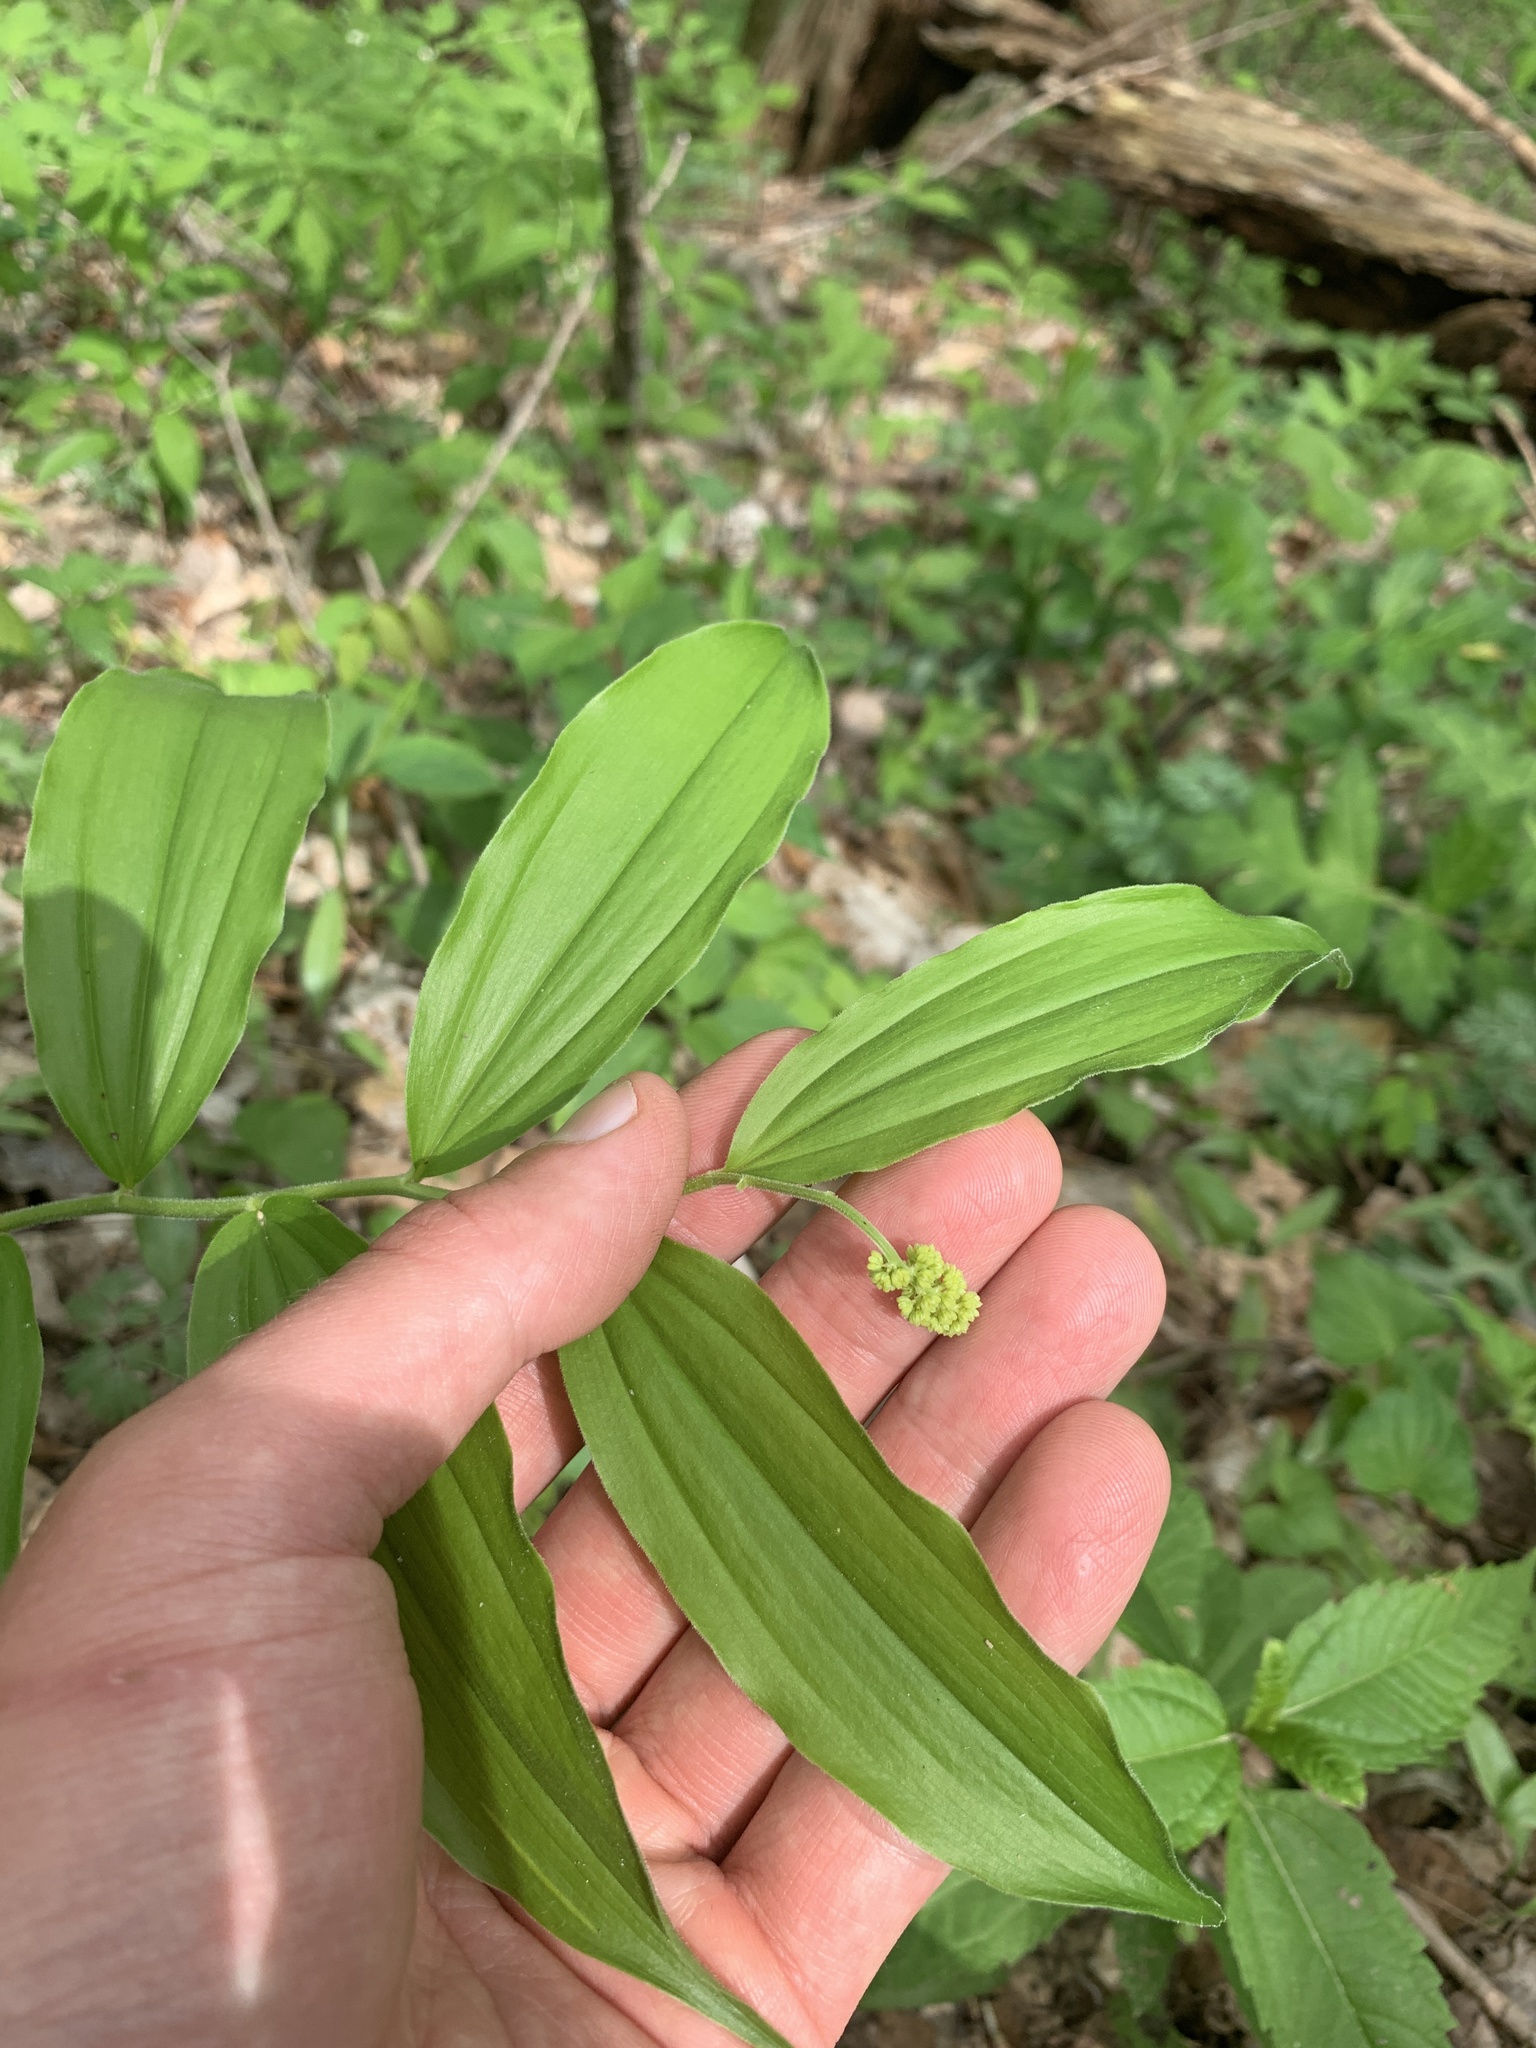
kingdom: Plantae
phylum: Tracheophyta
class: Liliopsida
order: Asparagales
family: Asparagaceae
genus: Maianthemum
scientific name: Maianthemum racemosum
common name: False spikenard
